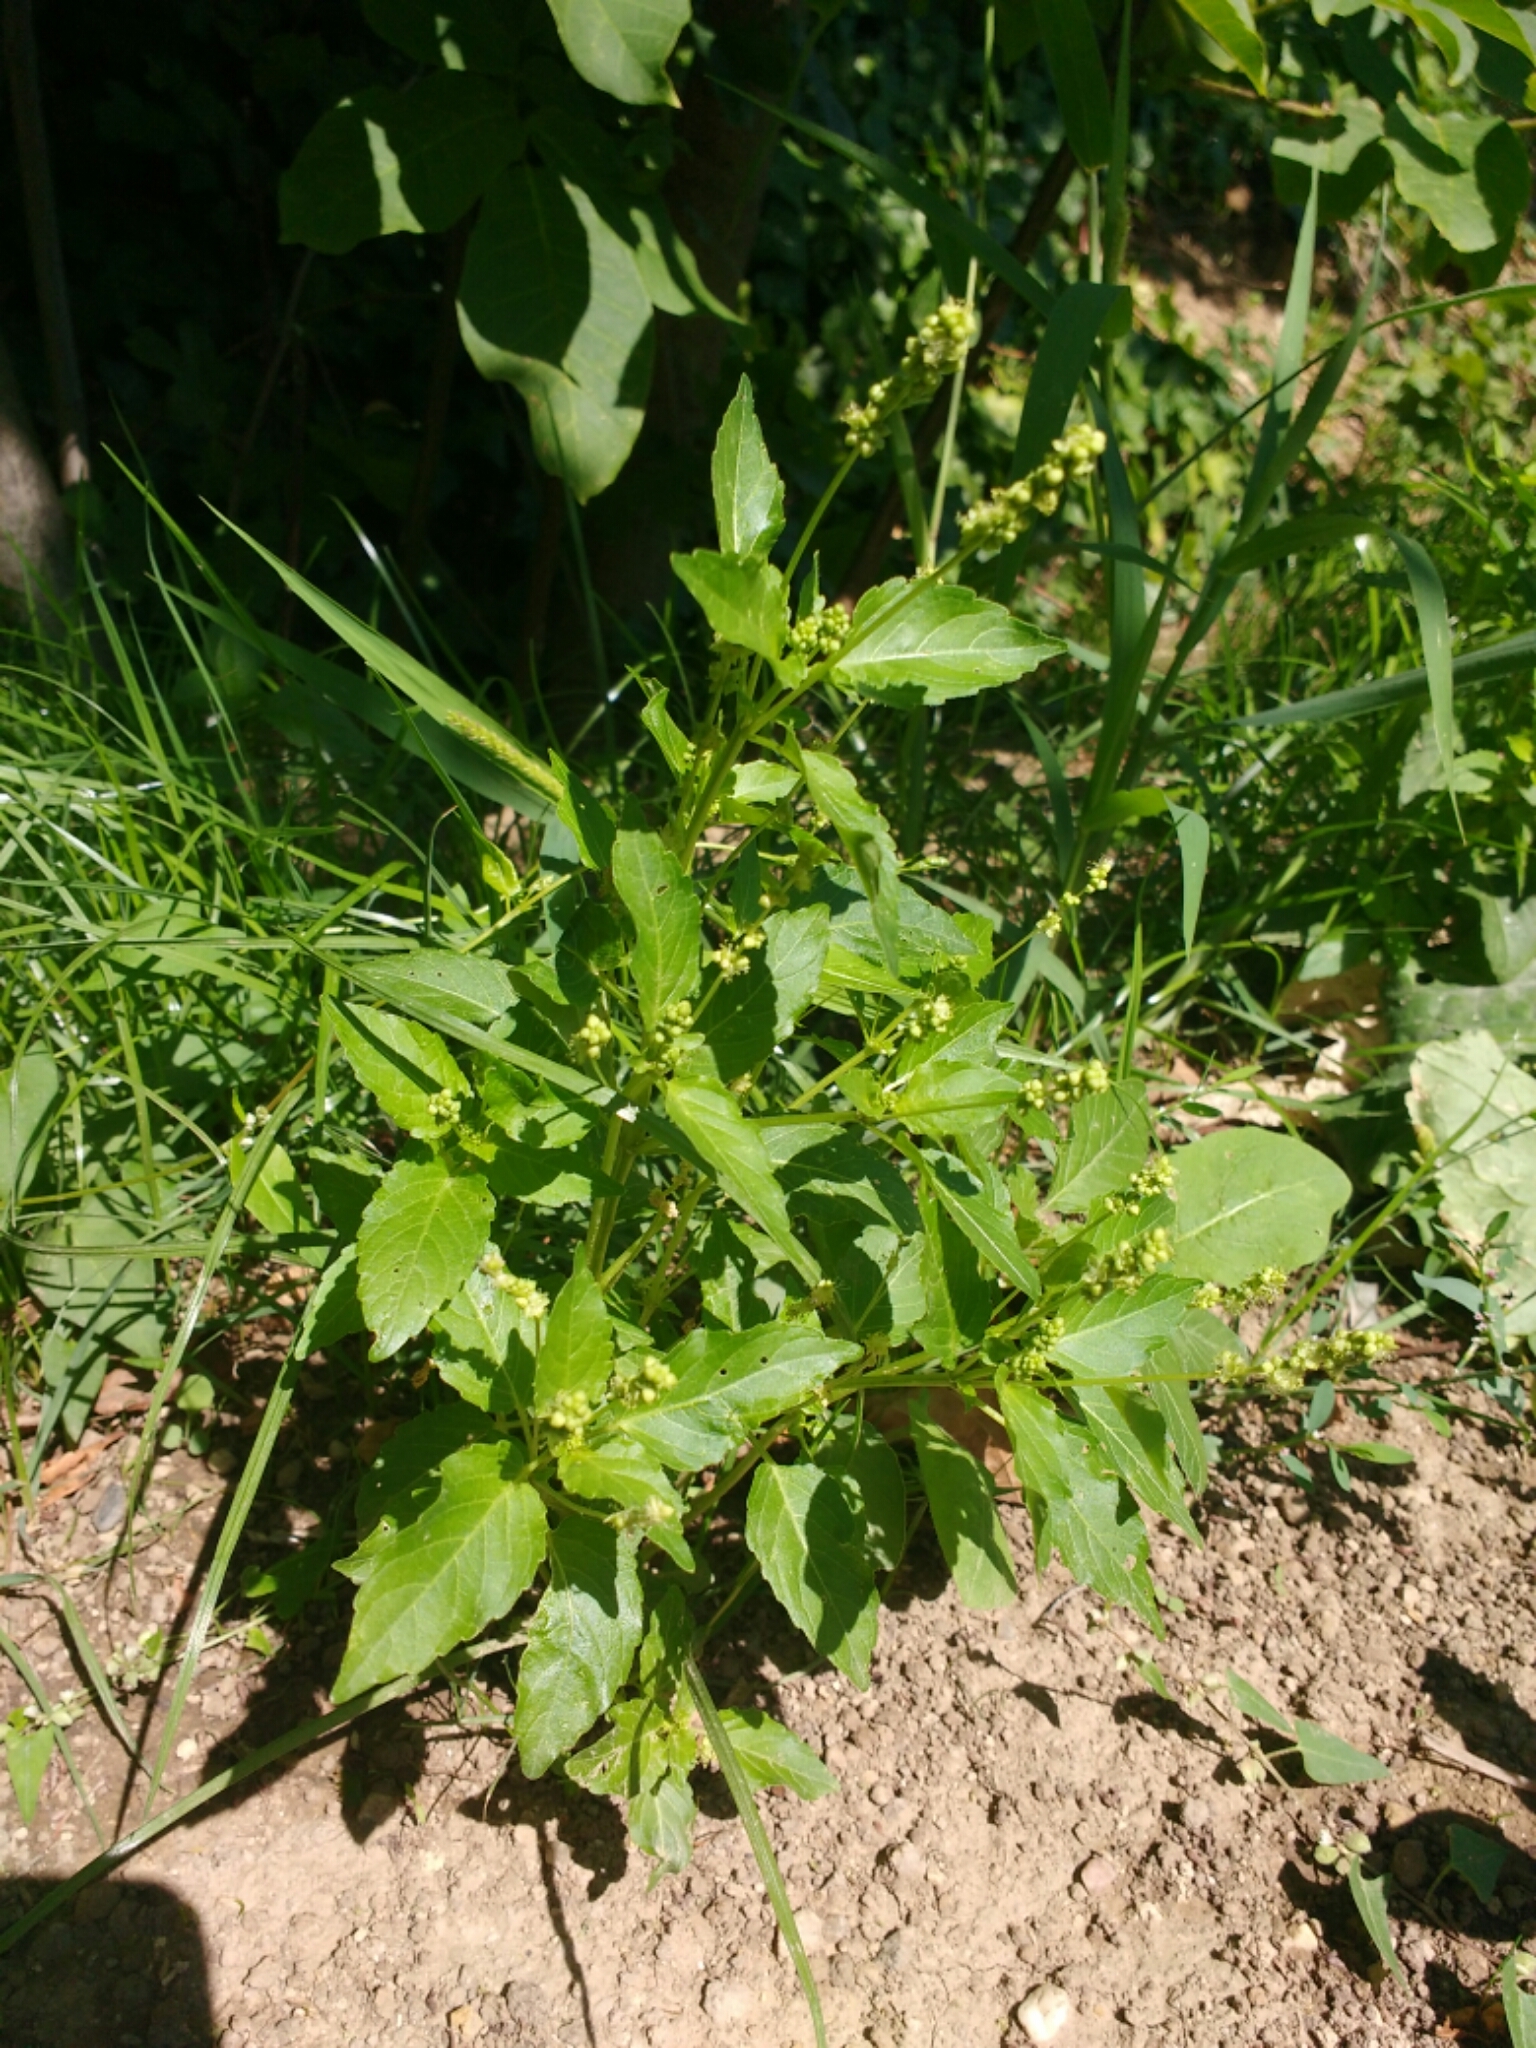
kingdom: Plantae
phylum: Tracheophyta
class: Magnoliopsida
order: Malpighiales
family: Euphorbiaceae
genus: Mercurialis
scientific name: Mercurialis annua
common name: Annual mercury
